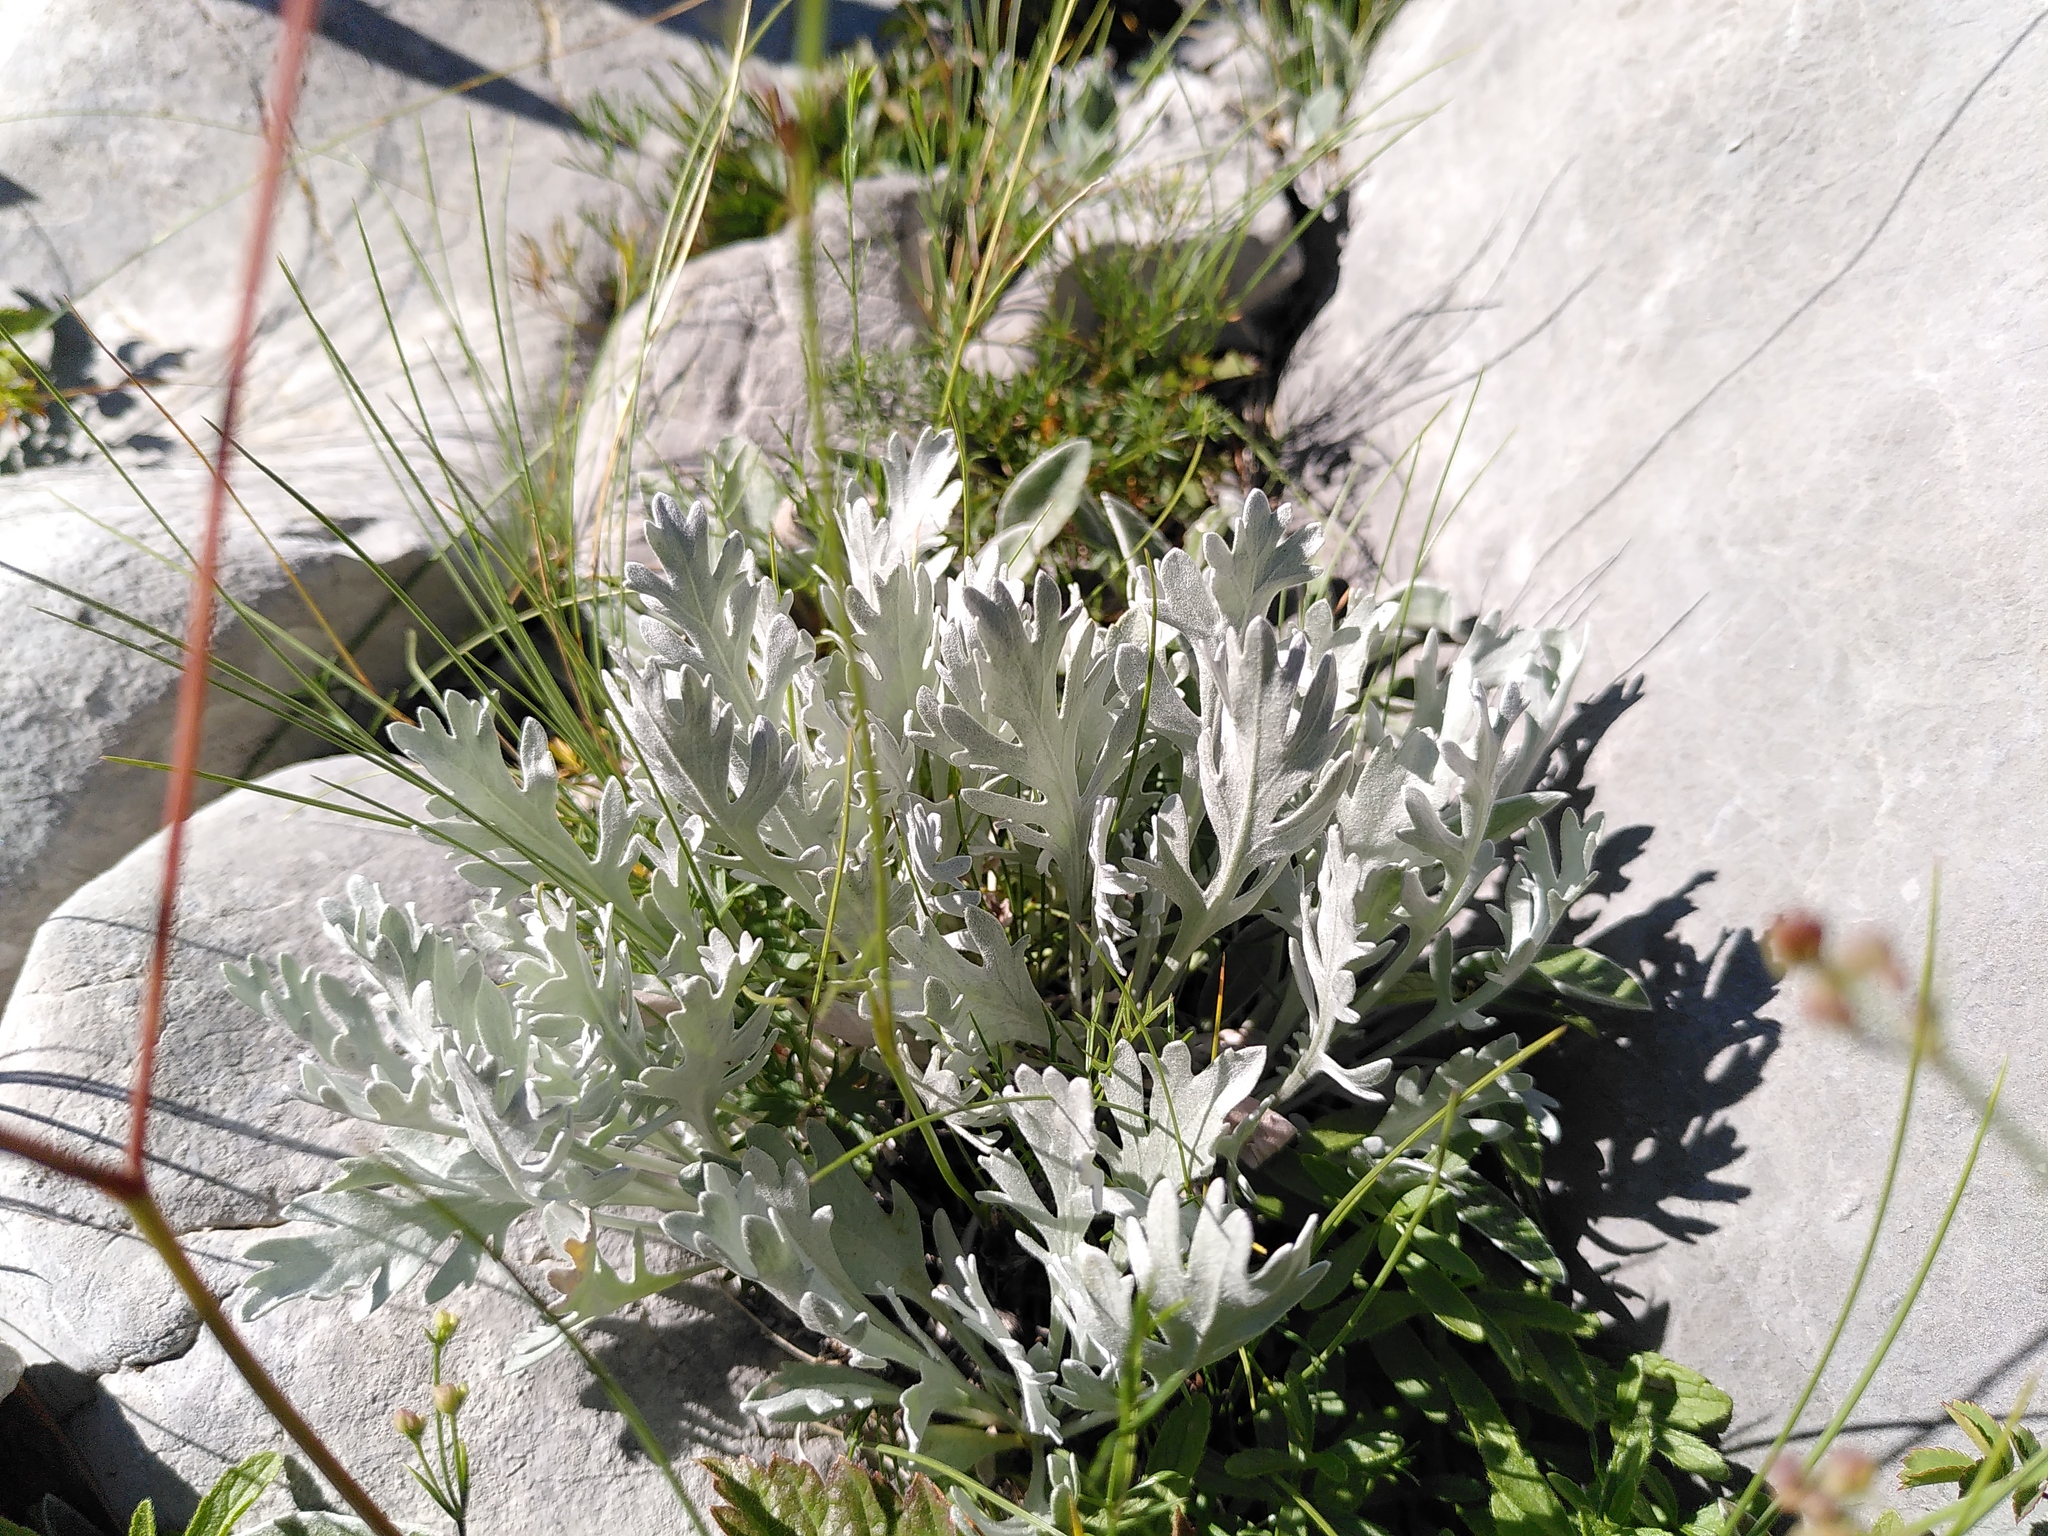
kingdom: Plantae
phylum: Tracheophyta
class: Magnoliopsida
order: Asterales
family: Asteraceae
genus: Achillea
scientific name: Achillea clavennae
